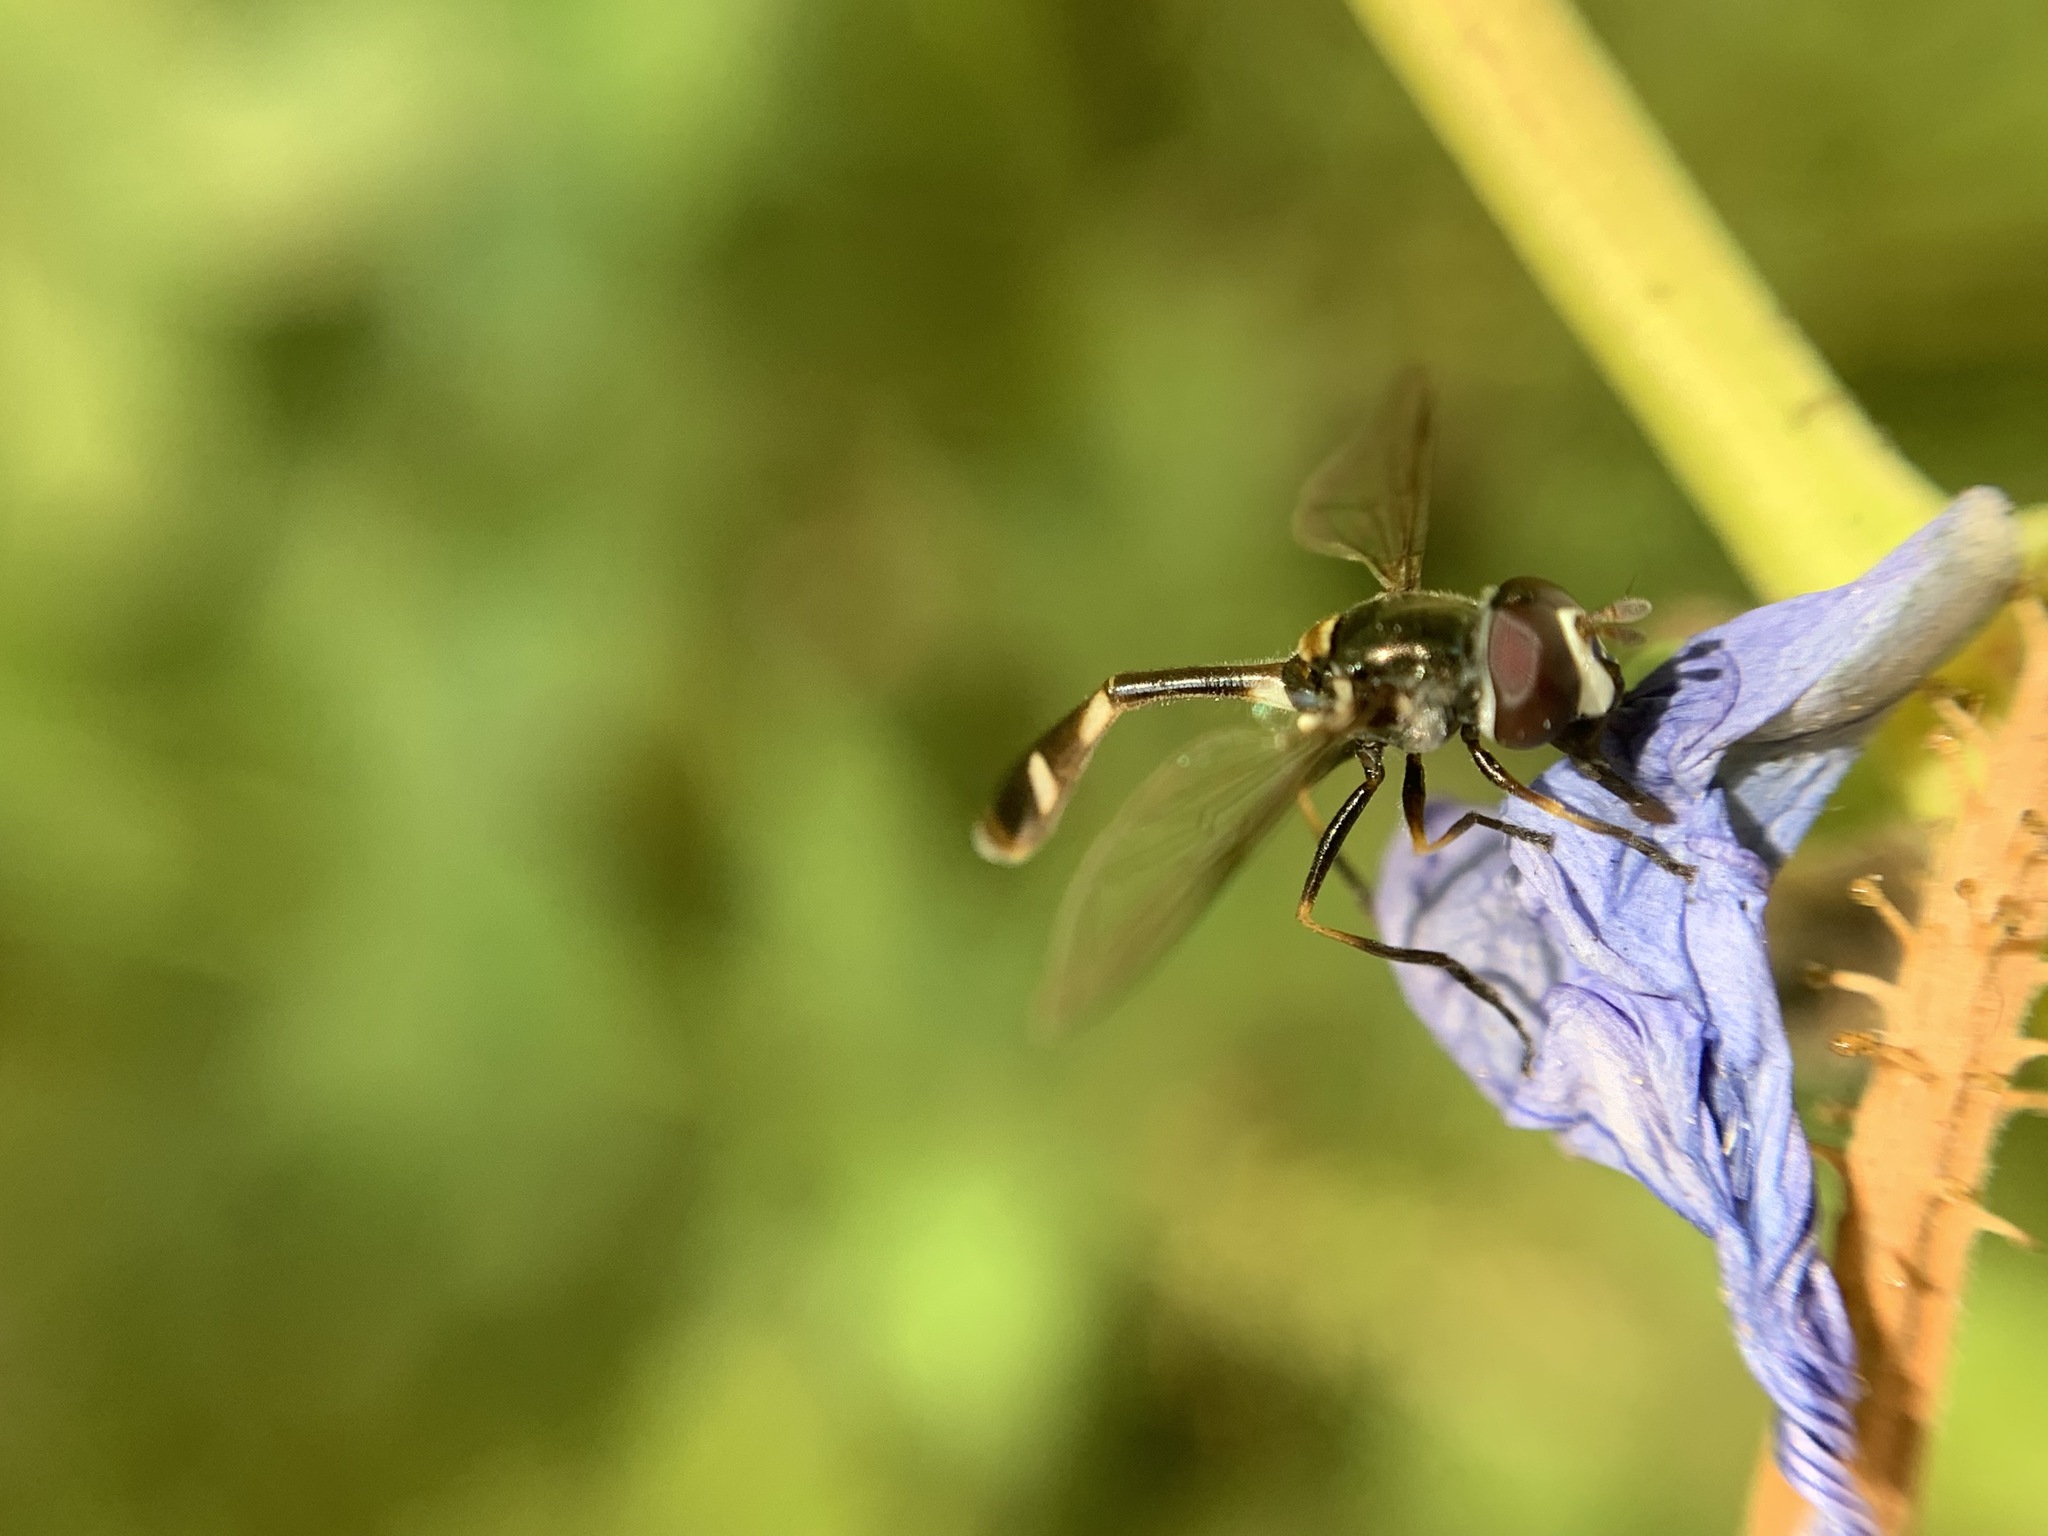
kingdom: Animalia
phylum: Arthropoda
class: Insecta
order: Diptera
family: Syrphidae
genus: Dioprosopa
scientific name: Dioprosopa clavatus
